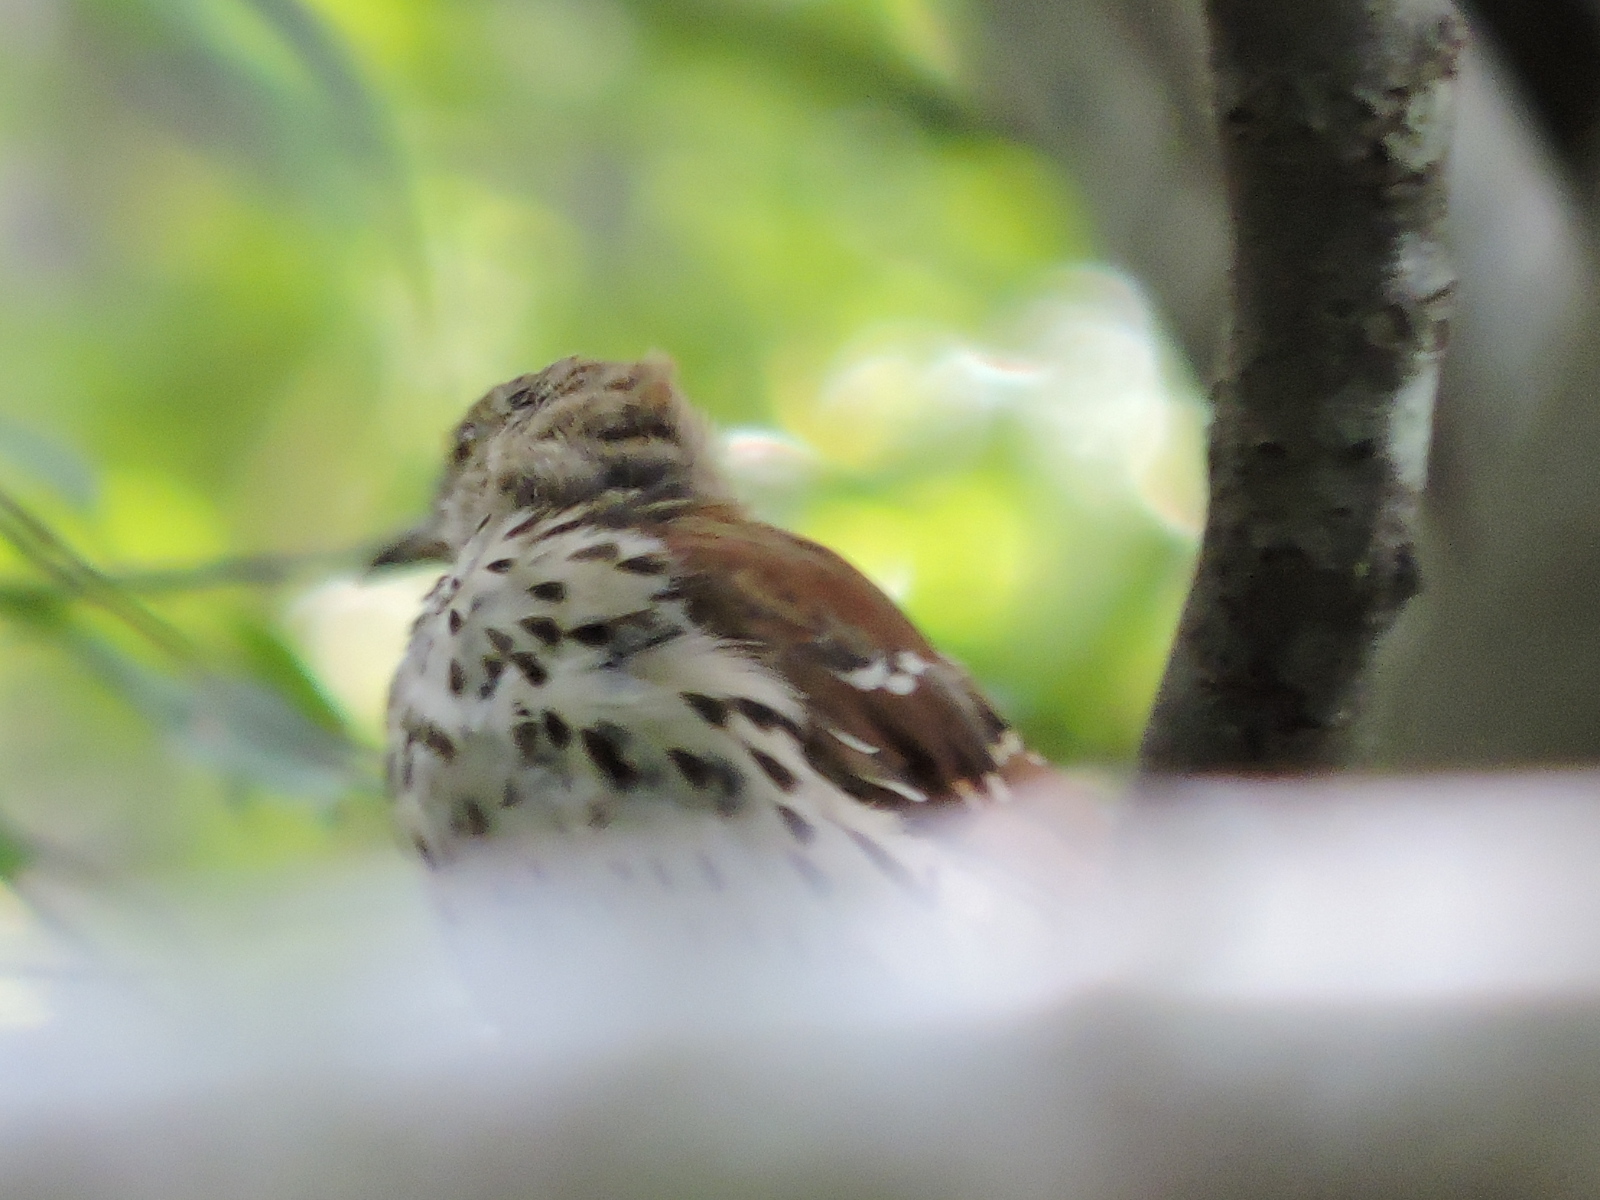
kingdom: Animalia
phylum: Chordata
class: Aves
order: Passeriformes
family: Mimidae
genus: Toxostoma
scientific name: Toxostoma rufum
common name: Brown thrasher
